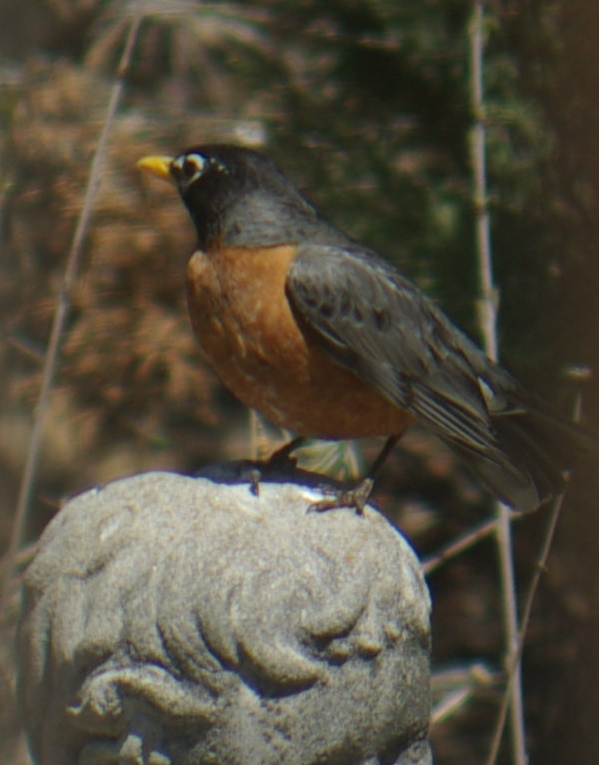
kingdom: Animalia
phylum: Chordata
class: Aves
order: Passeriformes
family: Turdidae
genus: Turdus
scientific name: Turdus migratorius
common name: American robin
